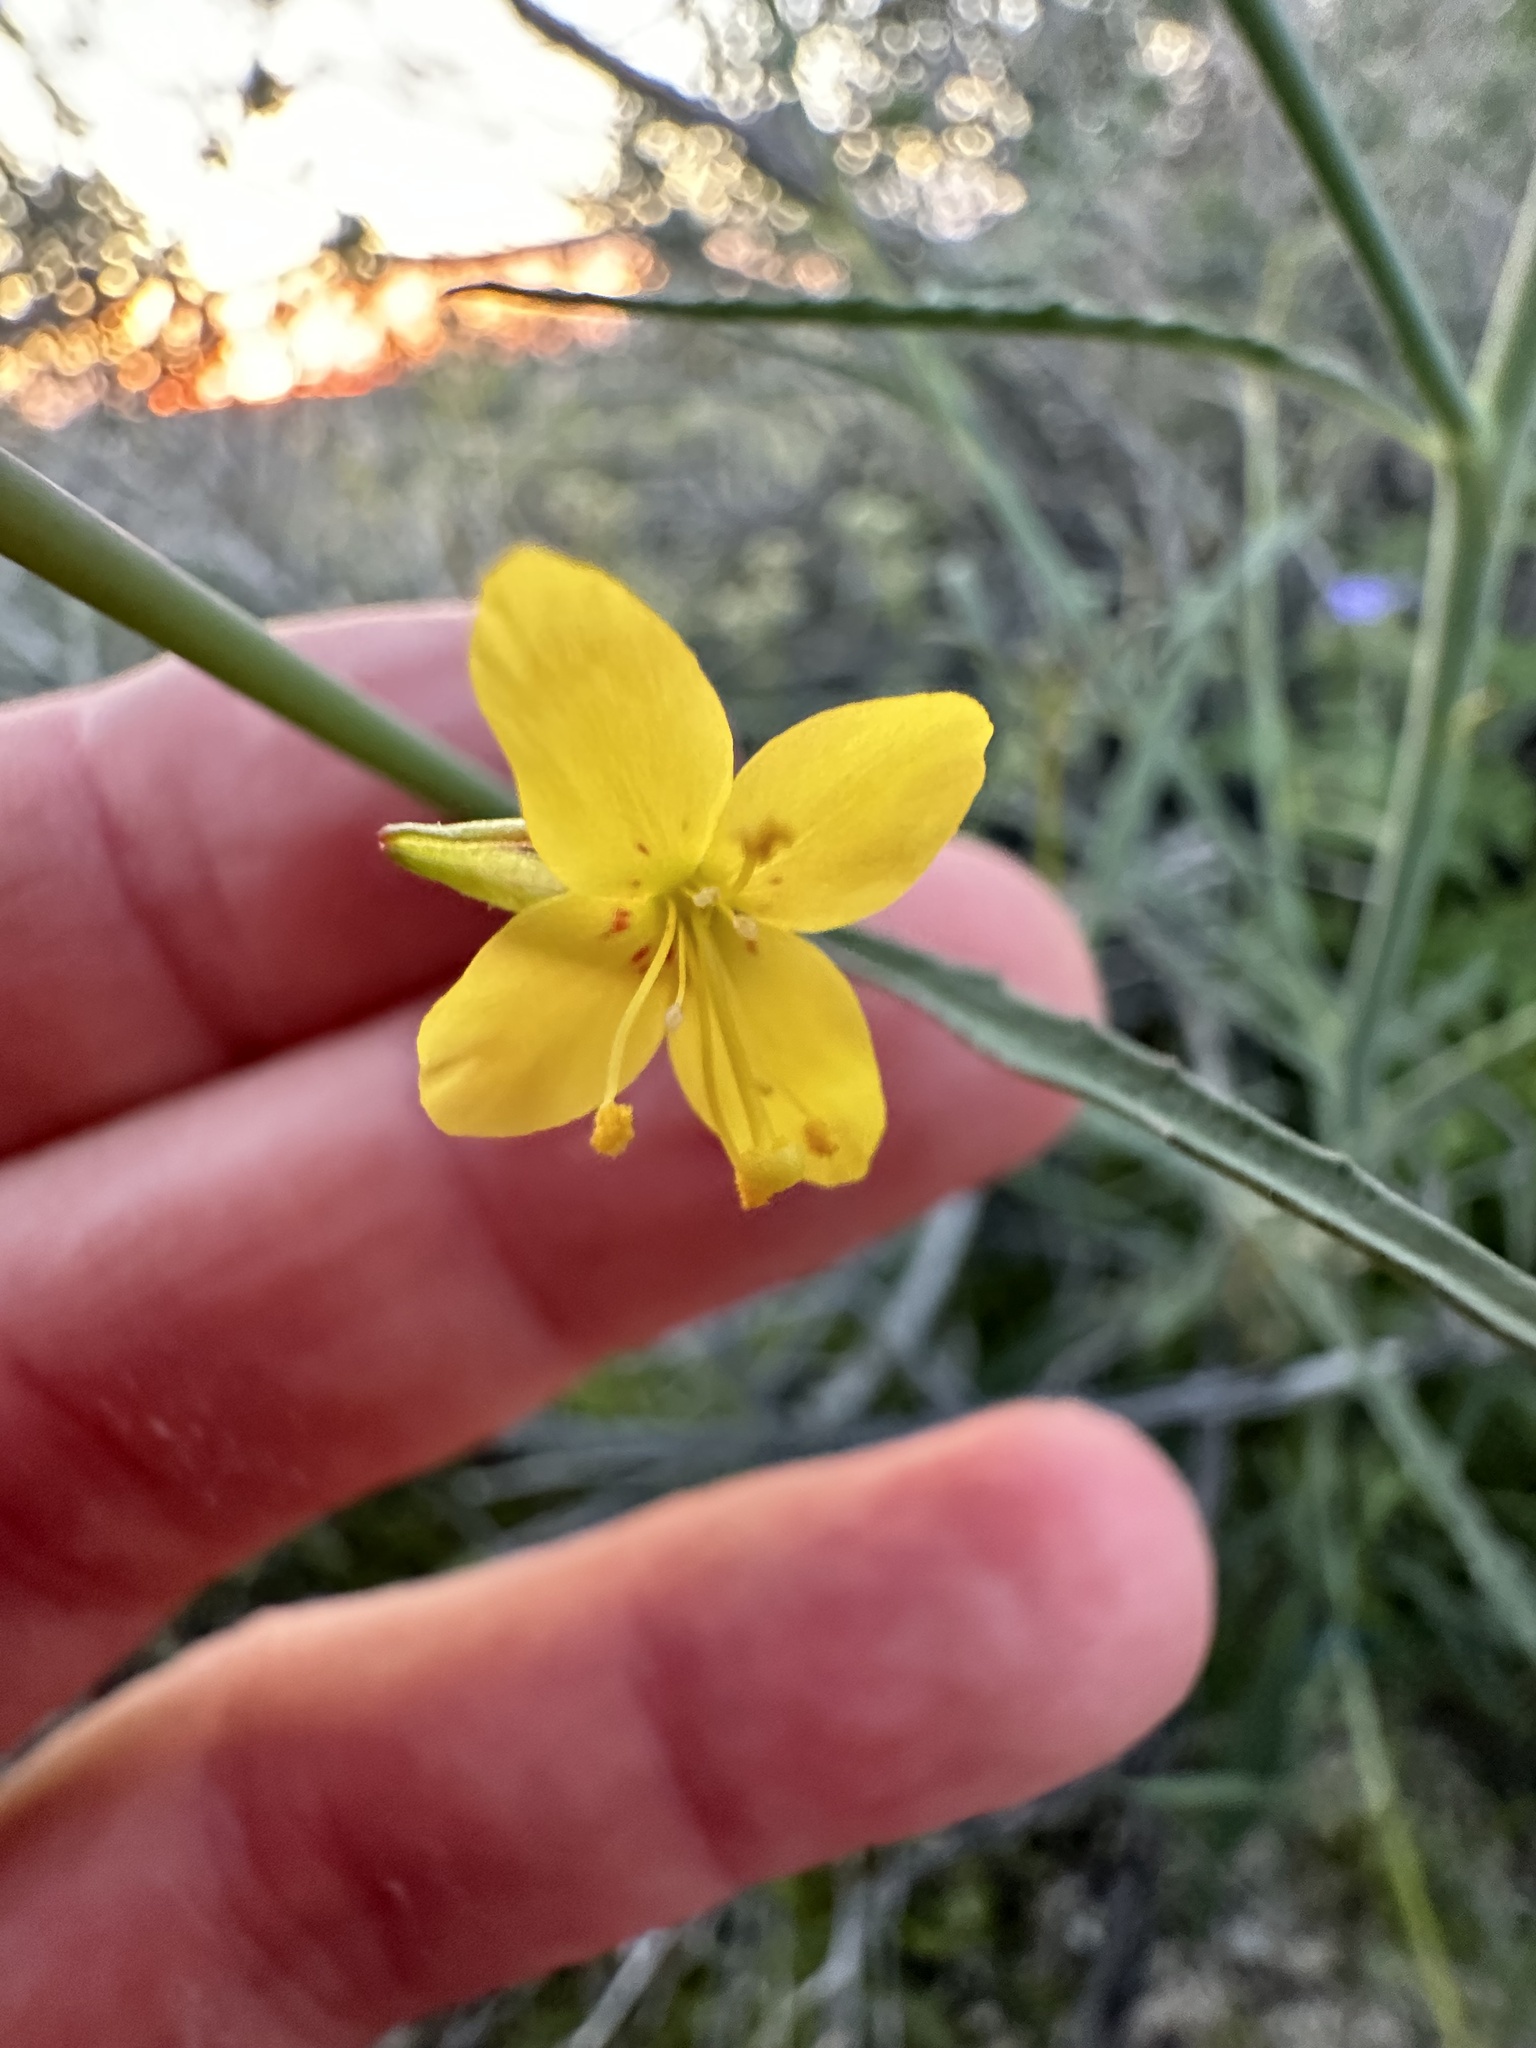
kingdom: Plantae
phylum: Tracheophyta
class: Magnoliopsida
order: Myrtales
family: Onagraceae
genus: Eulobus
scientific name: Eulobus californicus
